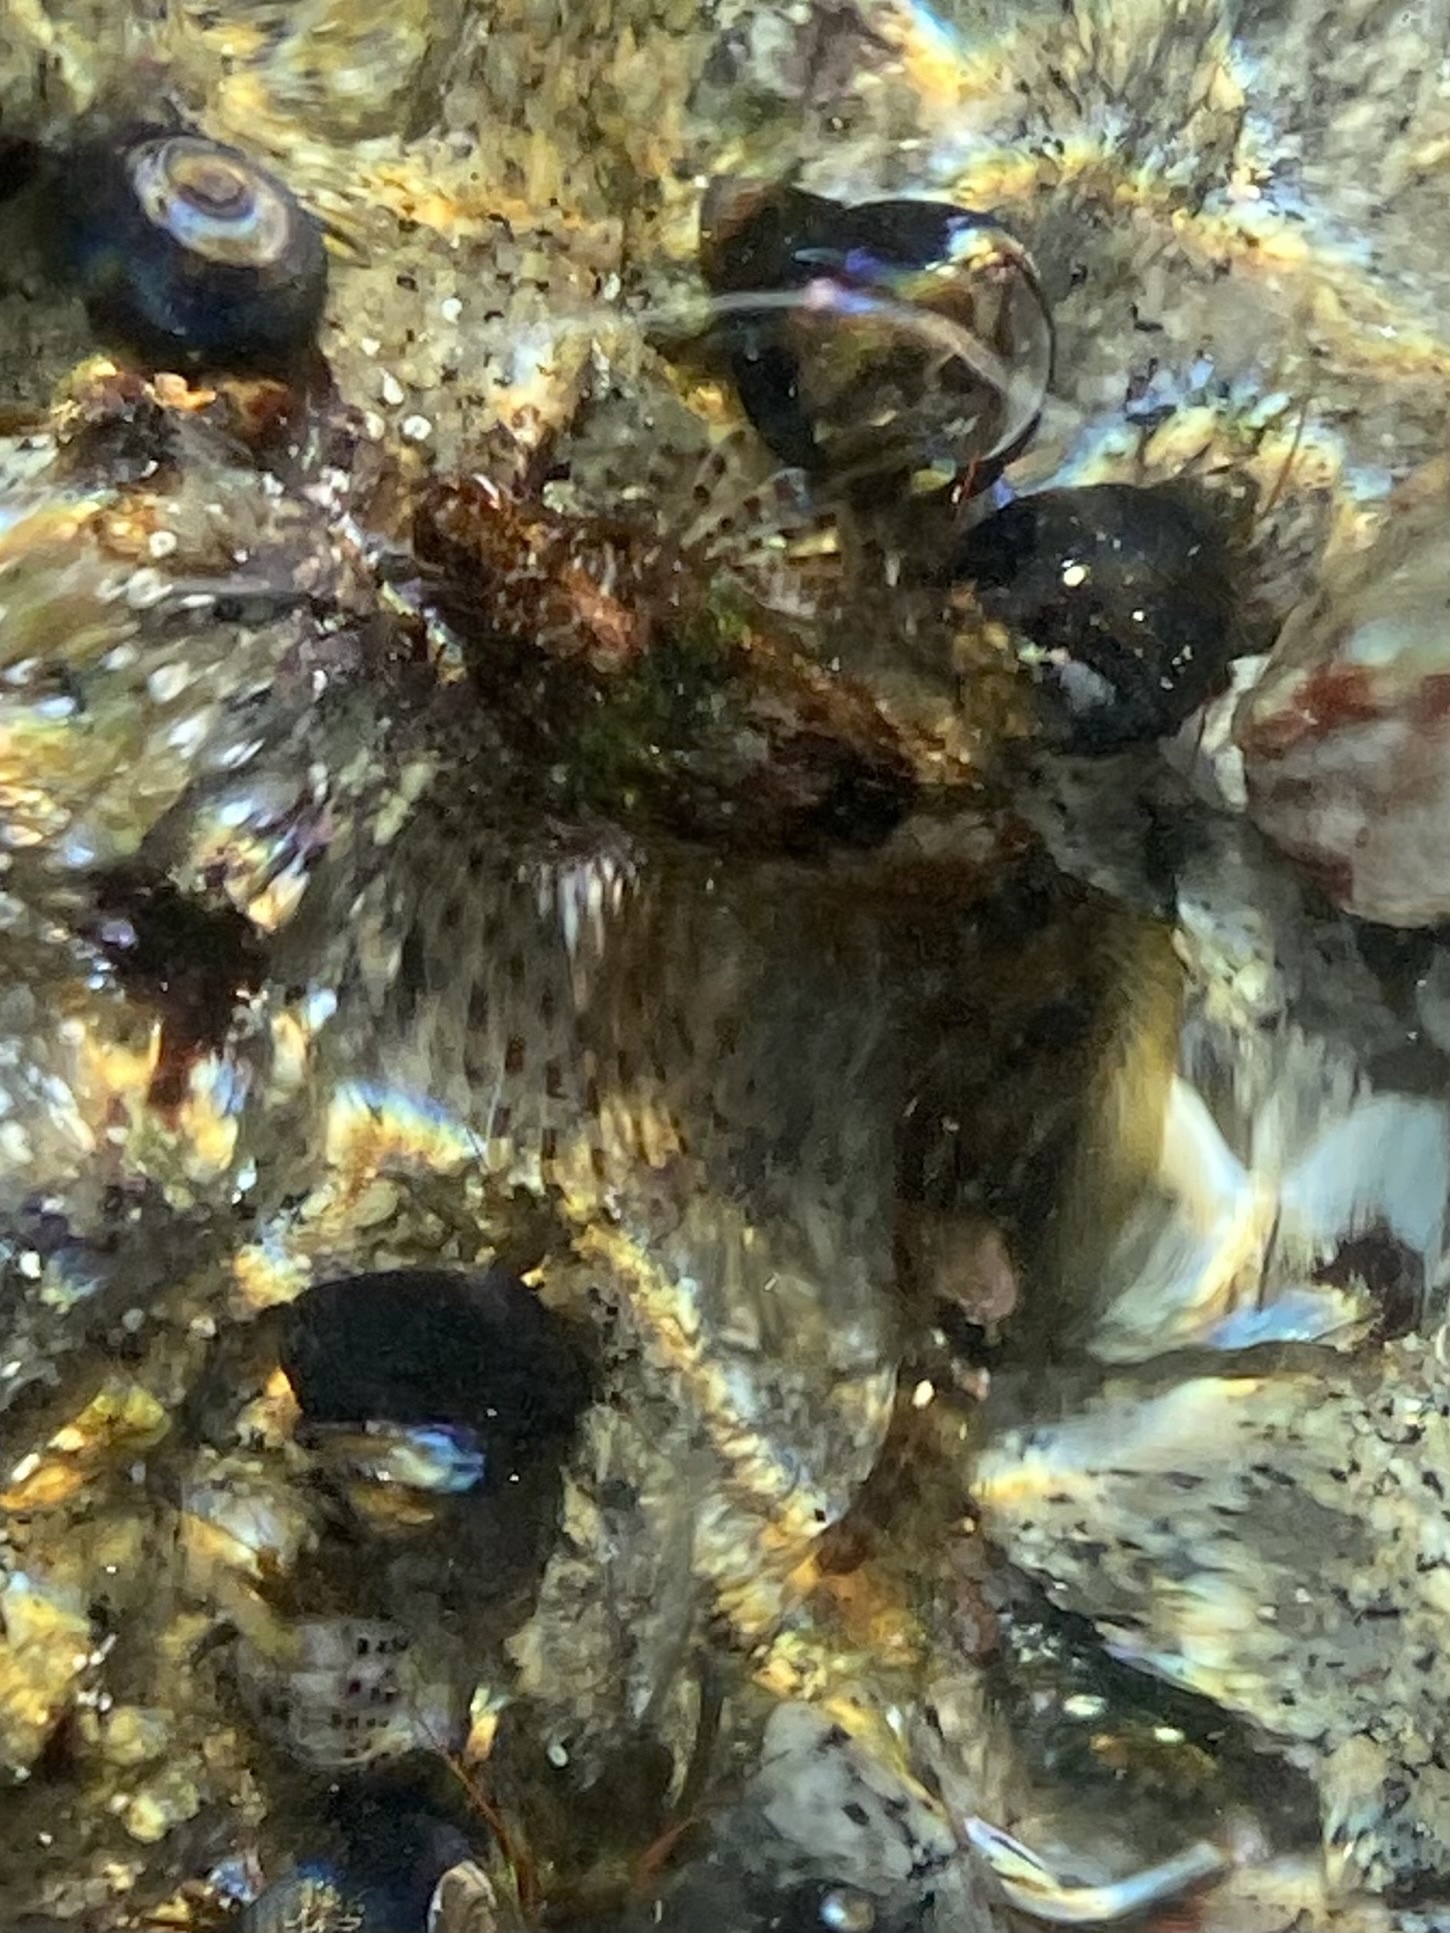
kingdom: Animalia
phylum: Chordata
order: Scorpaeniformes
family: Cottidae
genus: Clinocottus
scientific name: Clinocottus analis
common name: Woolly sculpin
